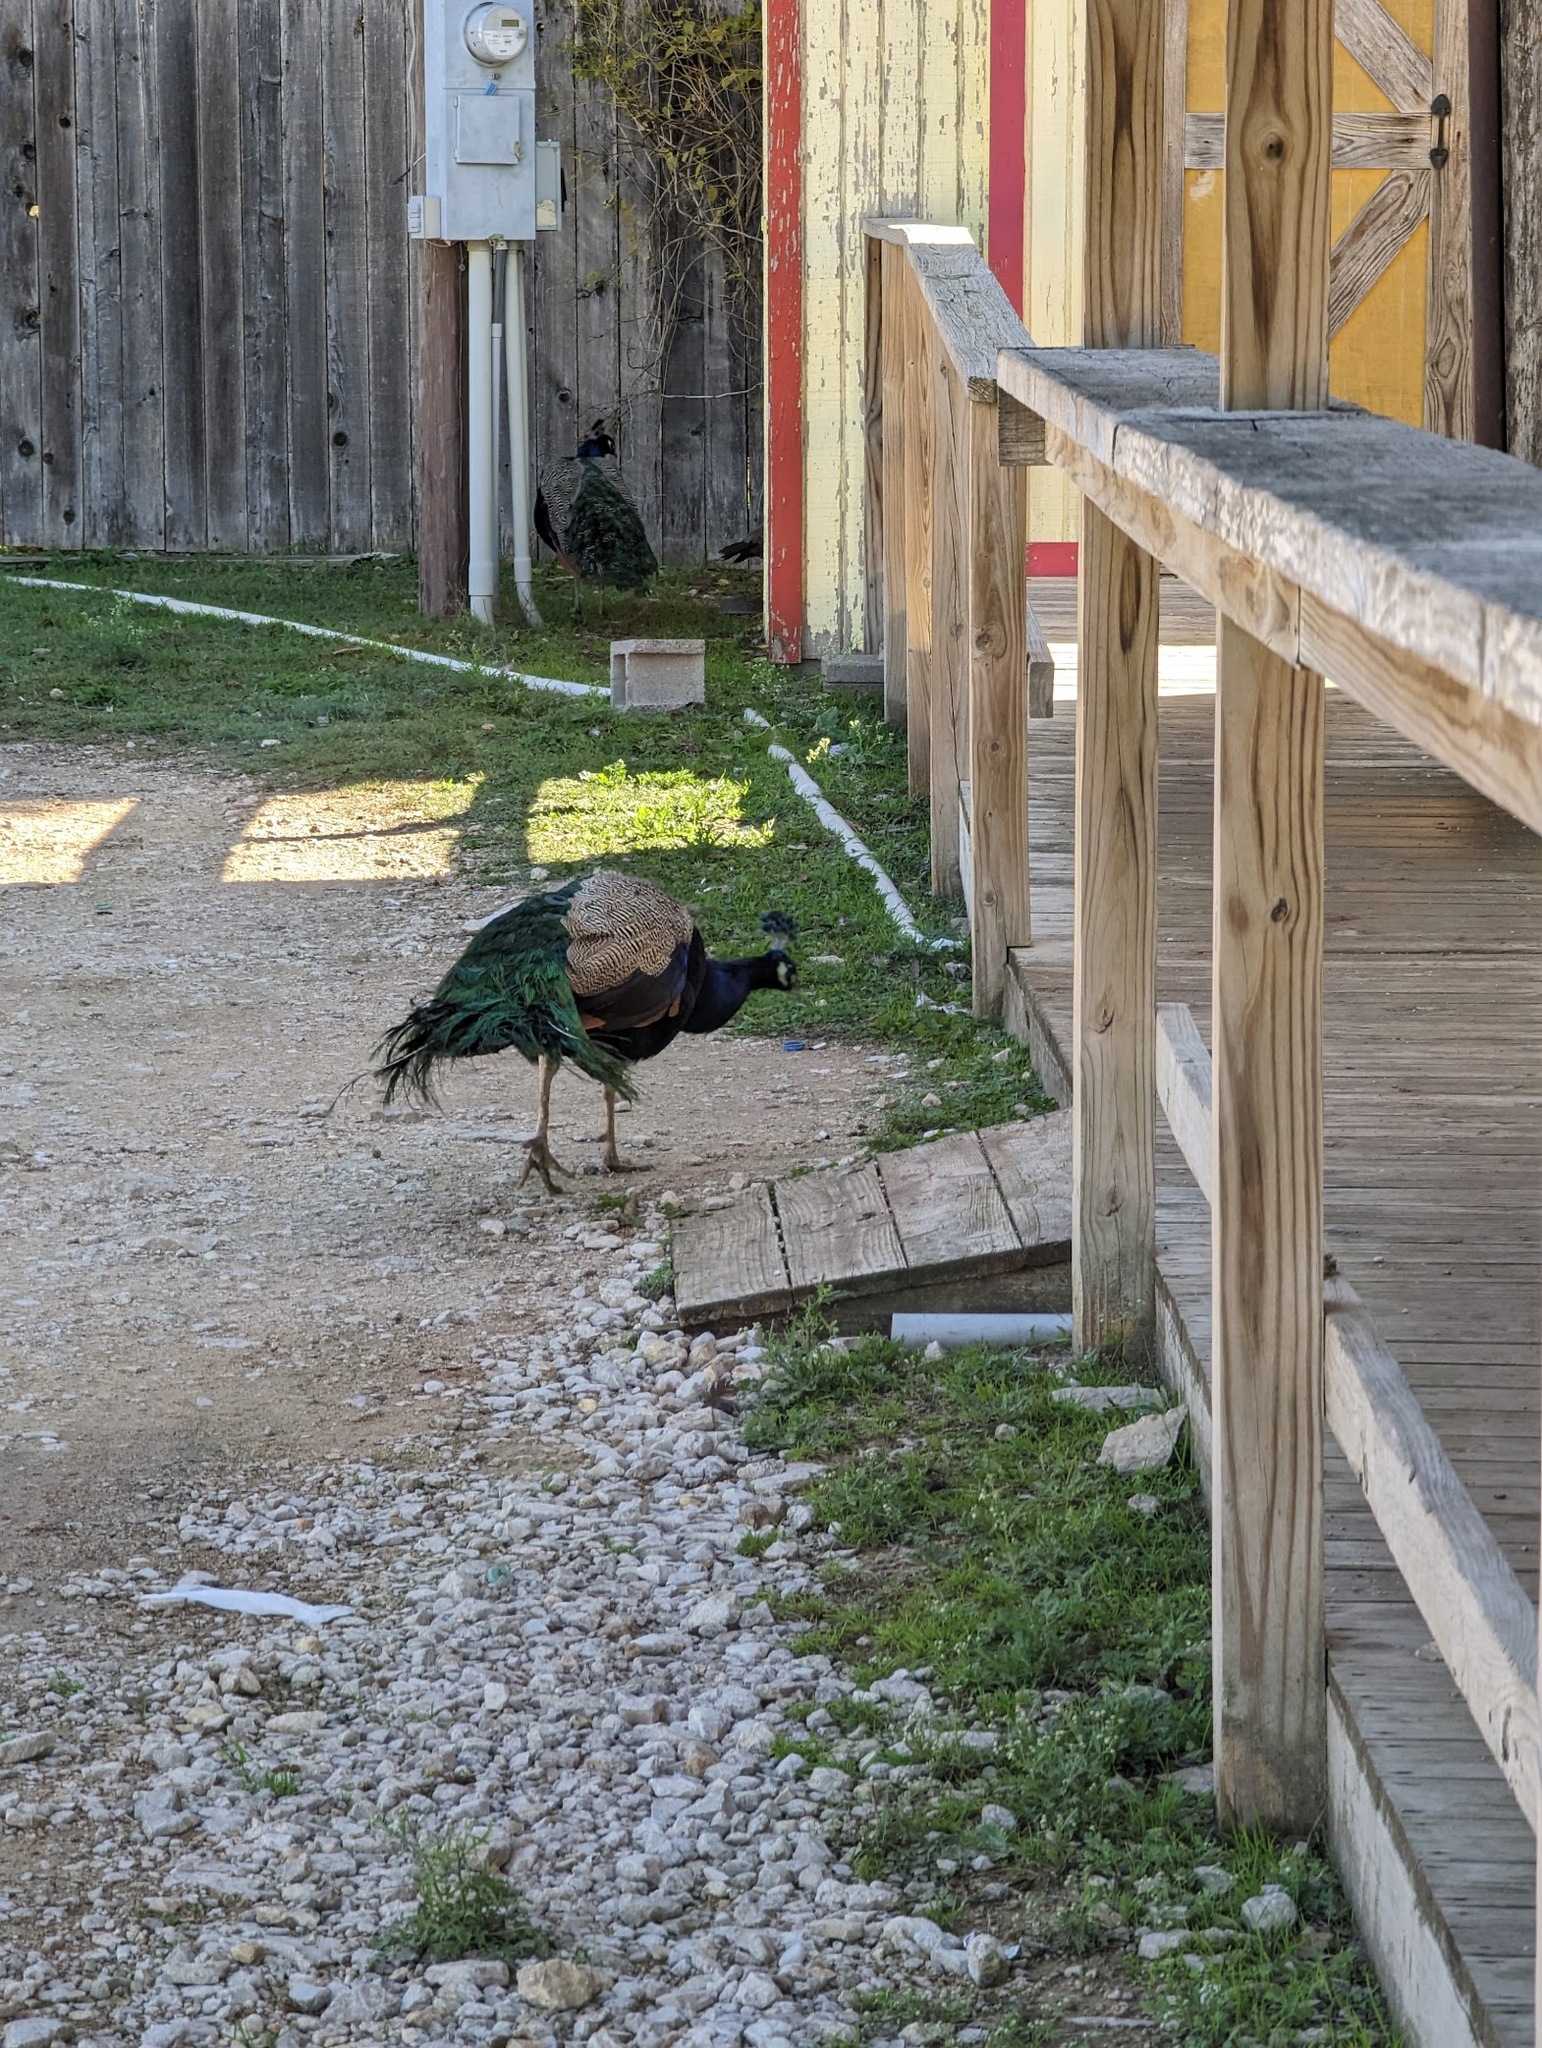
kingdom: Animalia
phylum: Chordata
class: Aves
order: Galliformes
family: Phasianidae
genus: Pavo
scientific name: Pavo cristatus
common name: Indian peafowl
